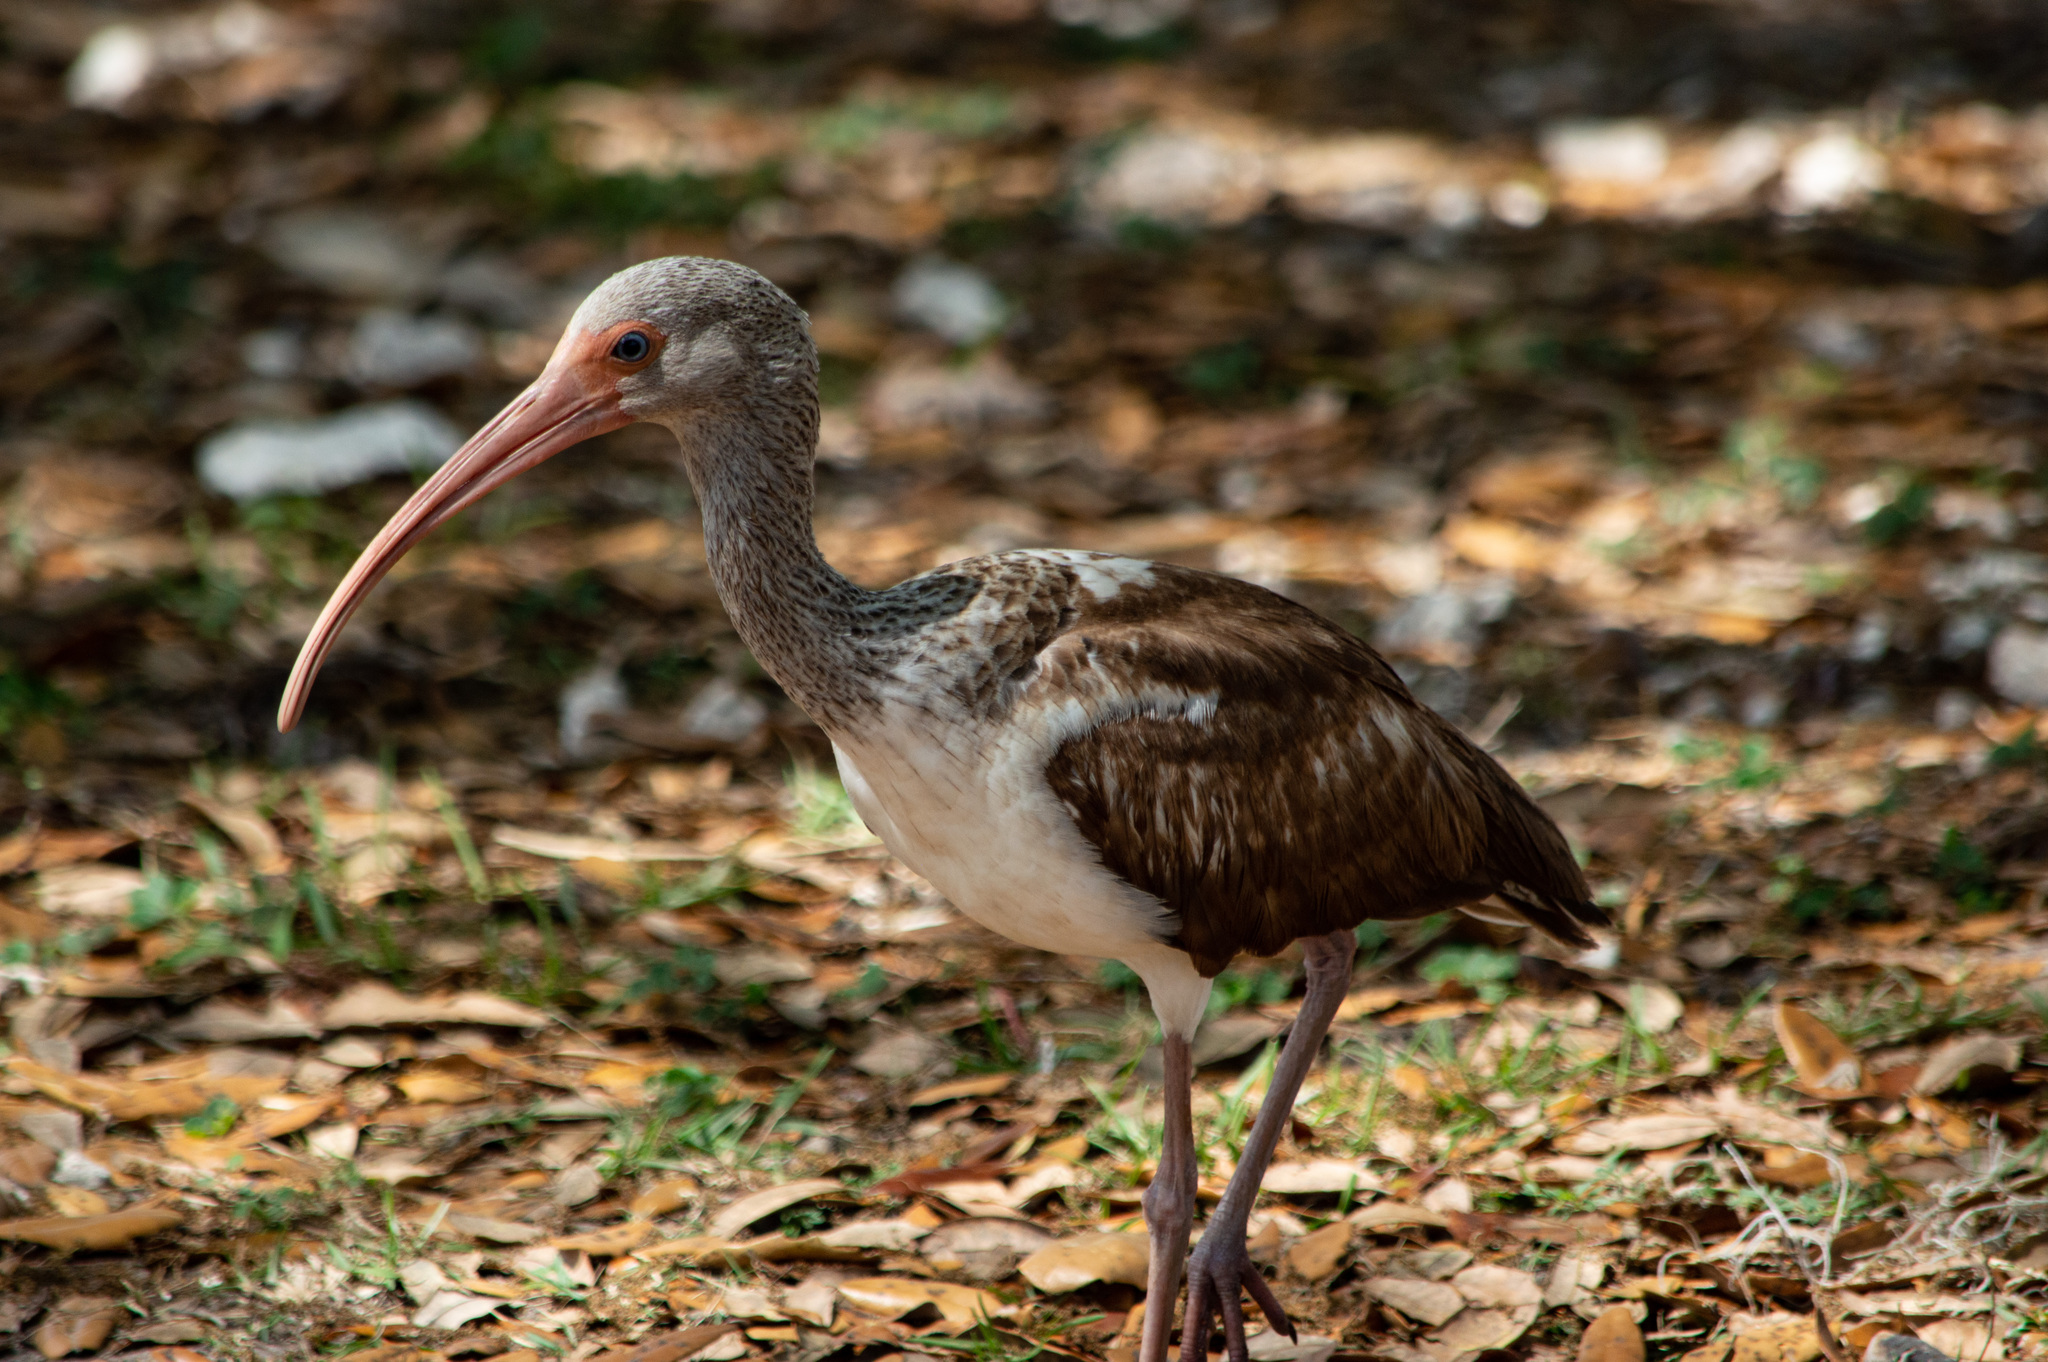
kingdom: Animalia
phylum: Chordata
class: Aves
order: Pelecaniformes
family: Threskiornithidae
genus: Eudocimus
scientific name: Eudocimus albus
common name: White ibis
